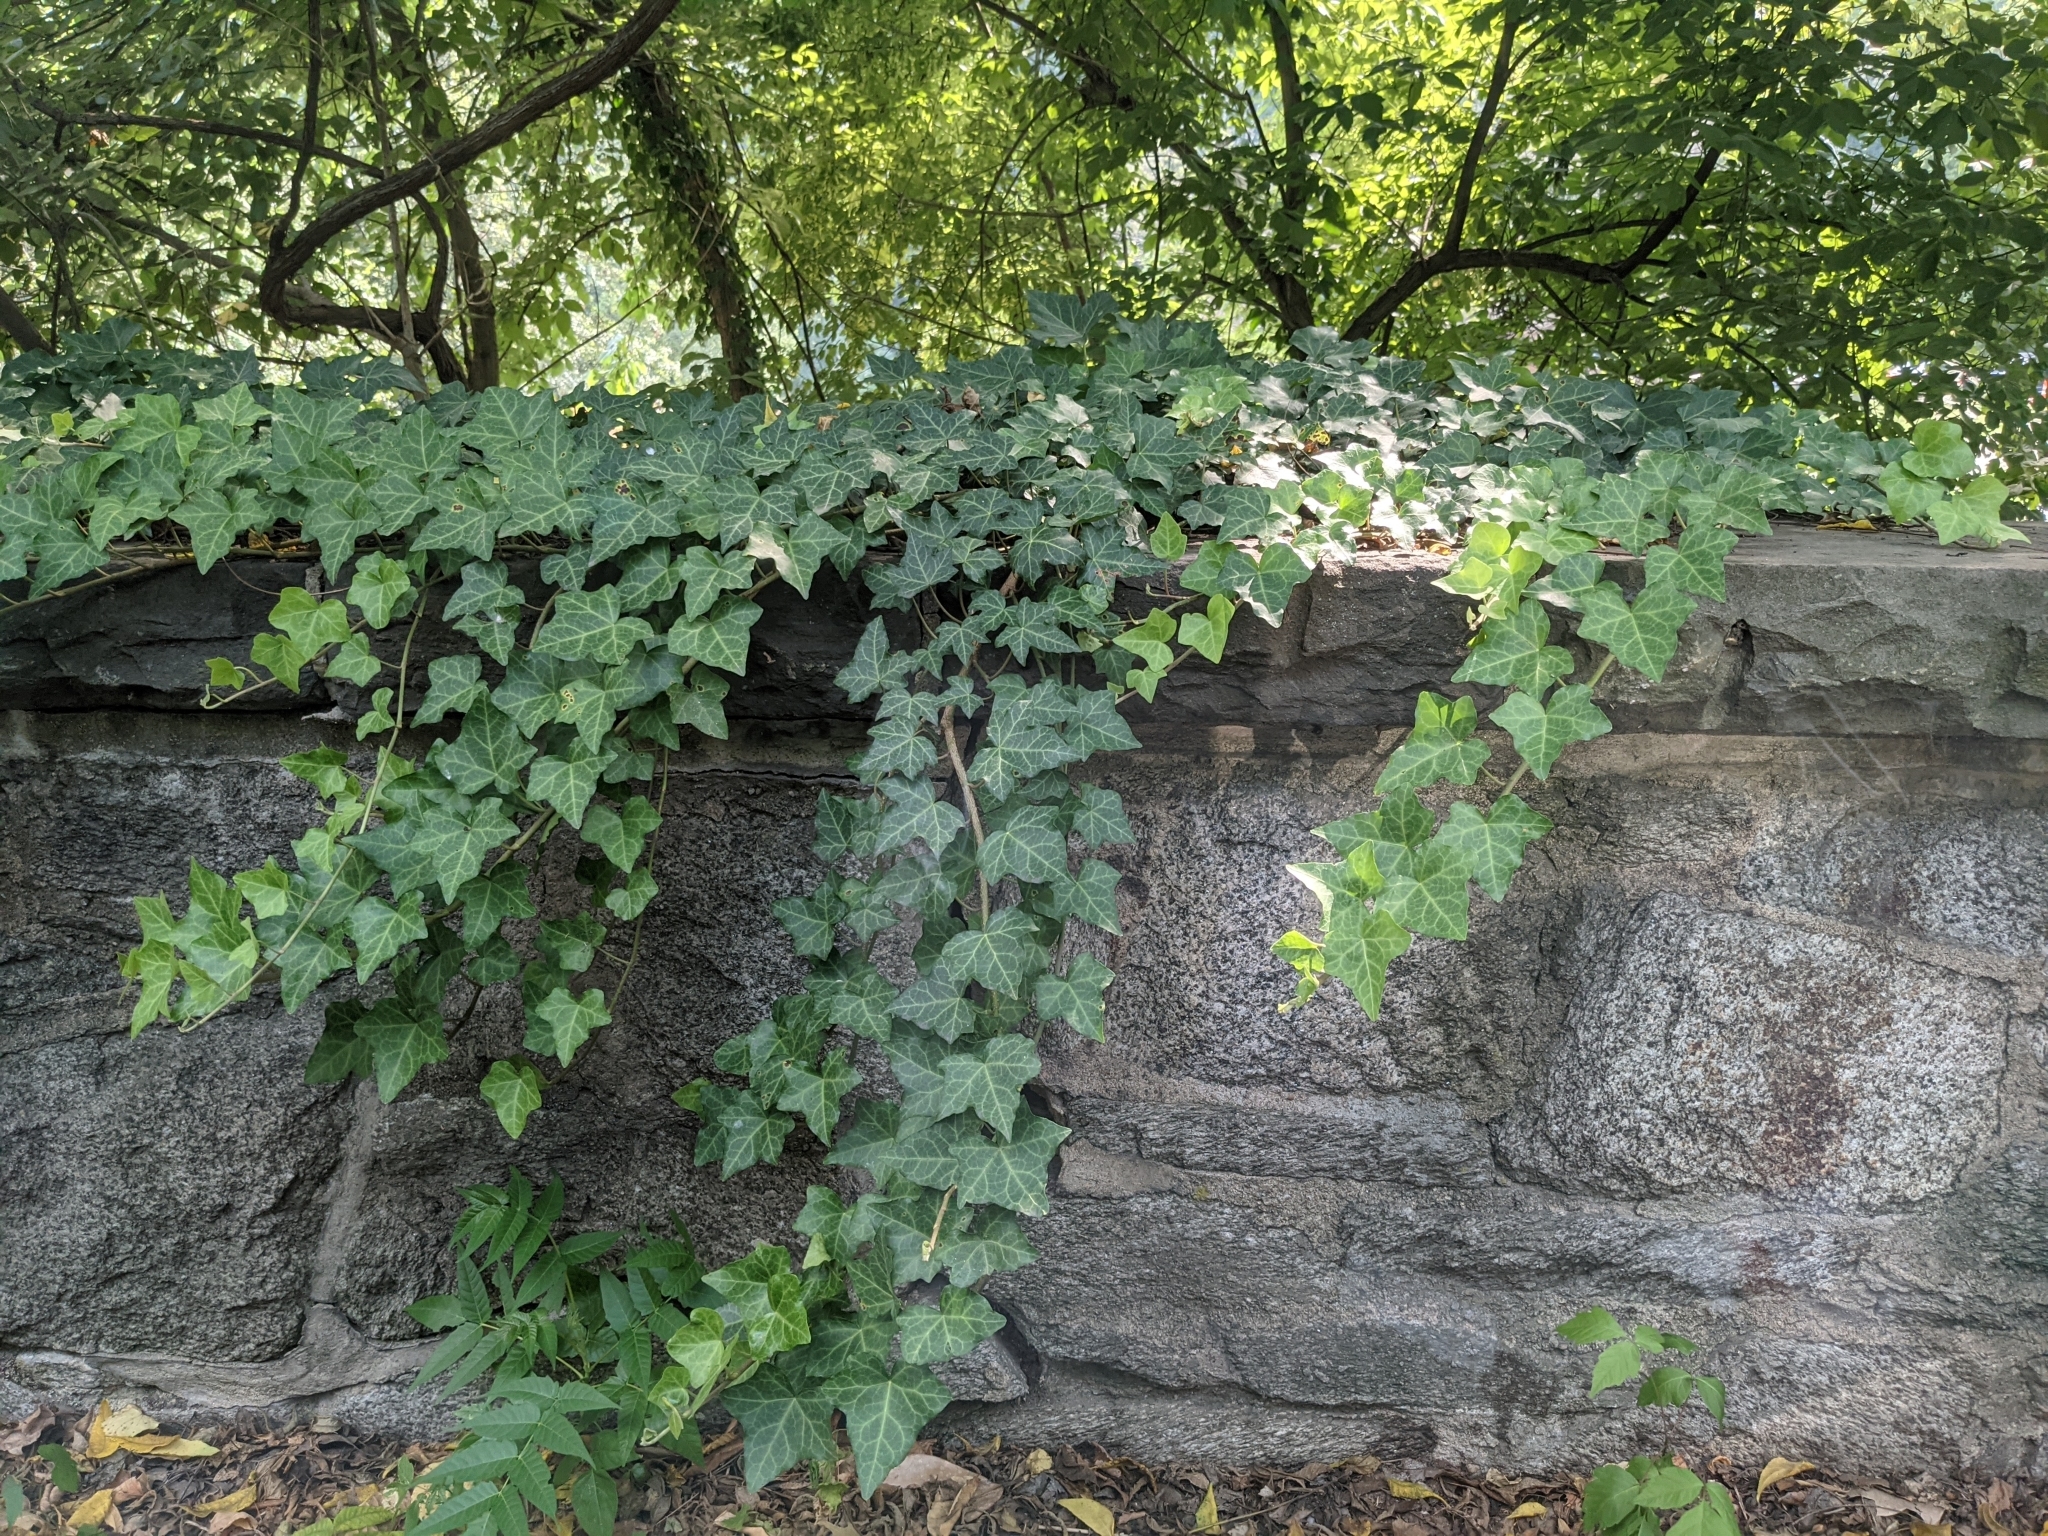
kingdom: Plantae
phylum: Tracheophyta
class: Magnoliopsida
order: Apiales
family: Araliaceae
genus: Hedera
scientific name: Hedera helix
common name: Ivy
